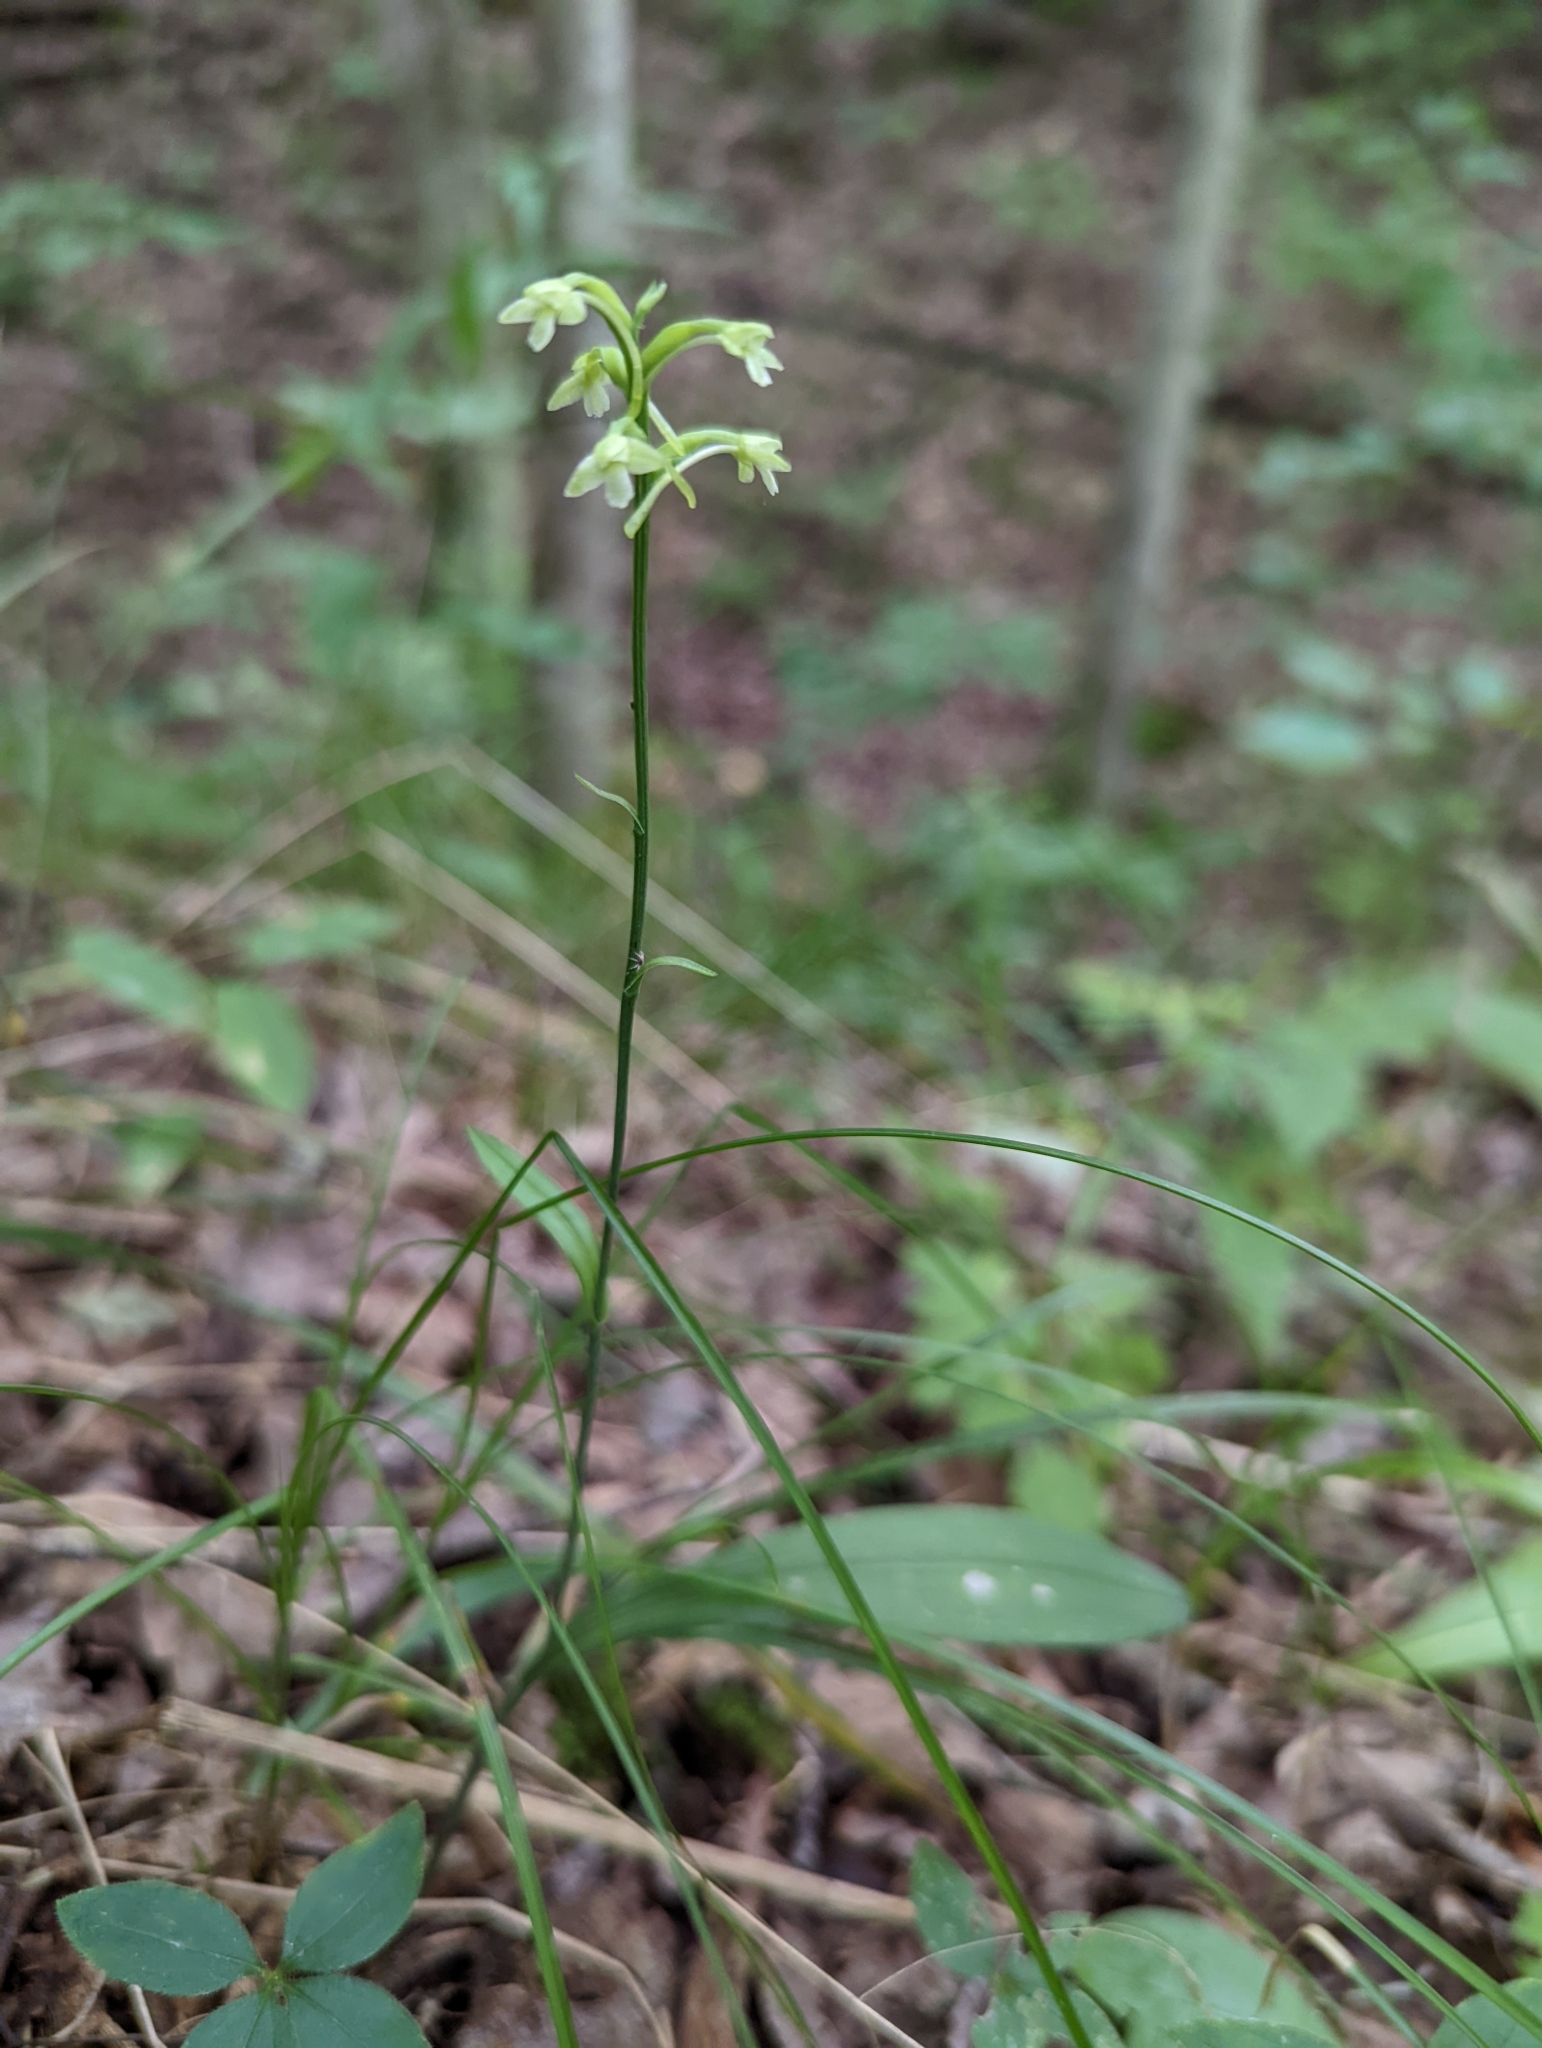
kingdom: Plantae
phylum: Tracheophyta
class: Liliopsida
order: Asparagales
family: Orchidaceae
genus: Platanthera
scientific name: Platanthera clavellata
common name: Club-spur orchid
